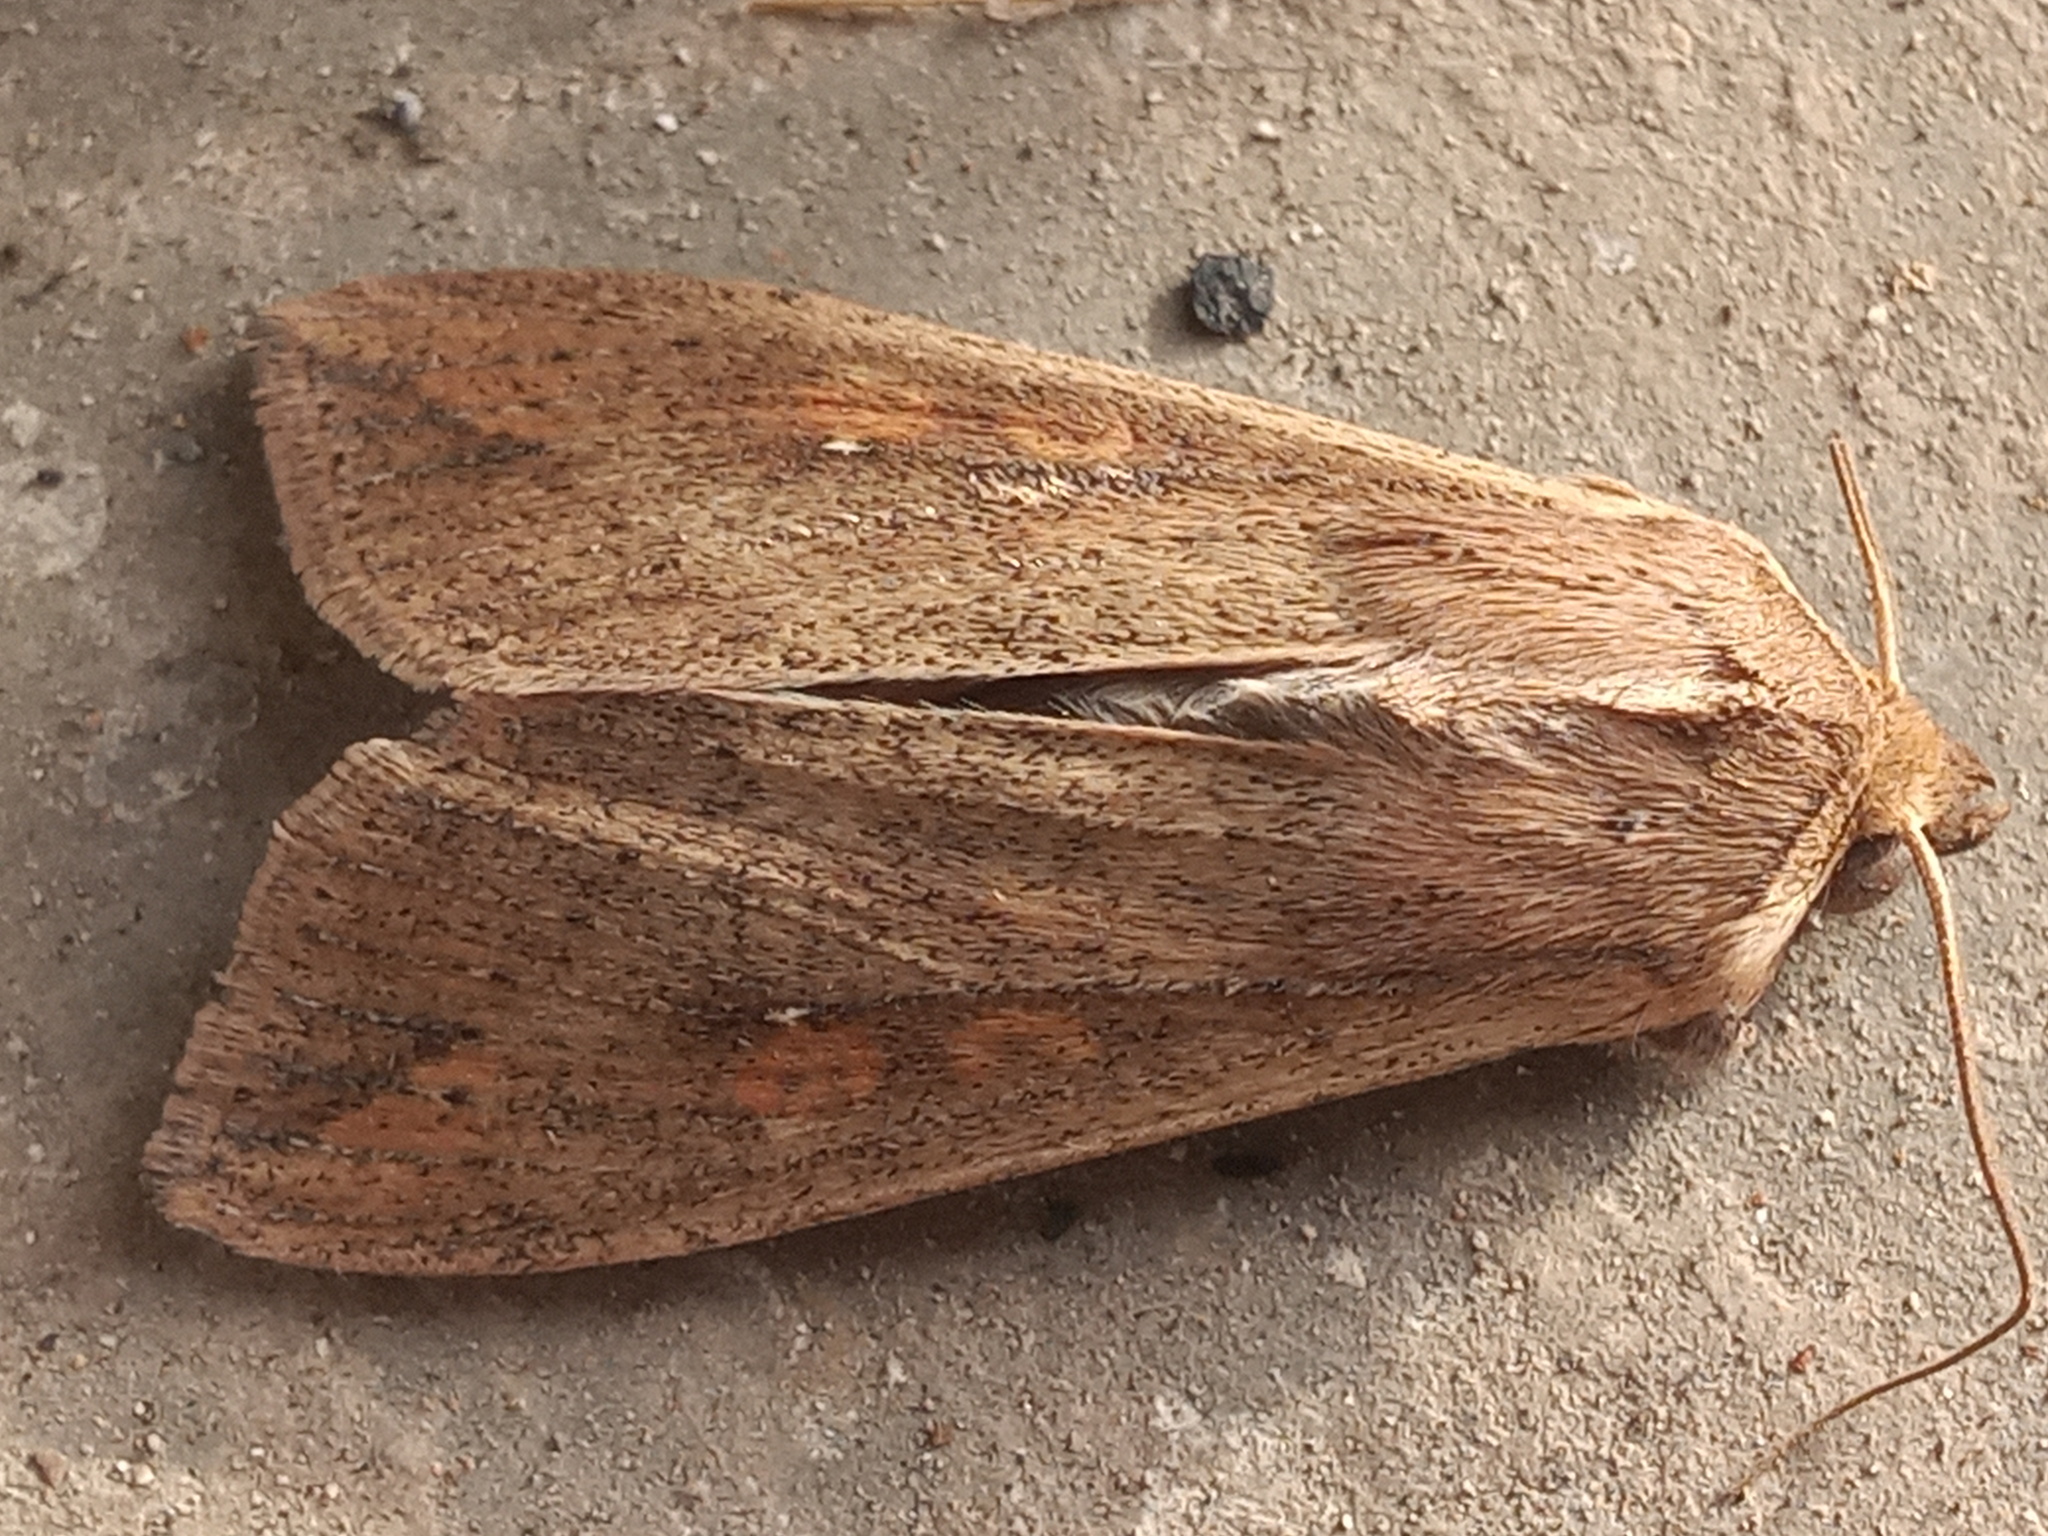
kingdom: Animalia
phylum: Arthropoda
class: Insecta
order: Lepidoptera
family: Noctuidae
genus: Mythimna
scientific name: Mythimna unipuncta
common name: White-speck
